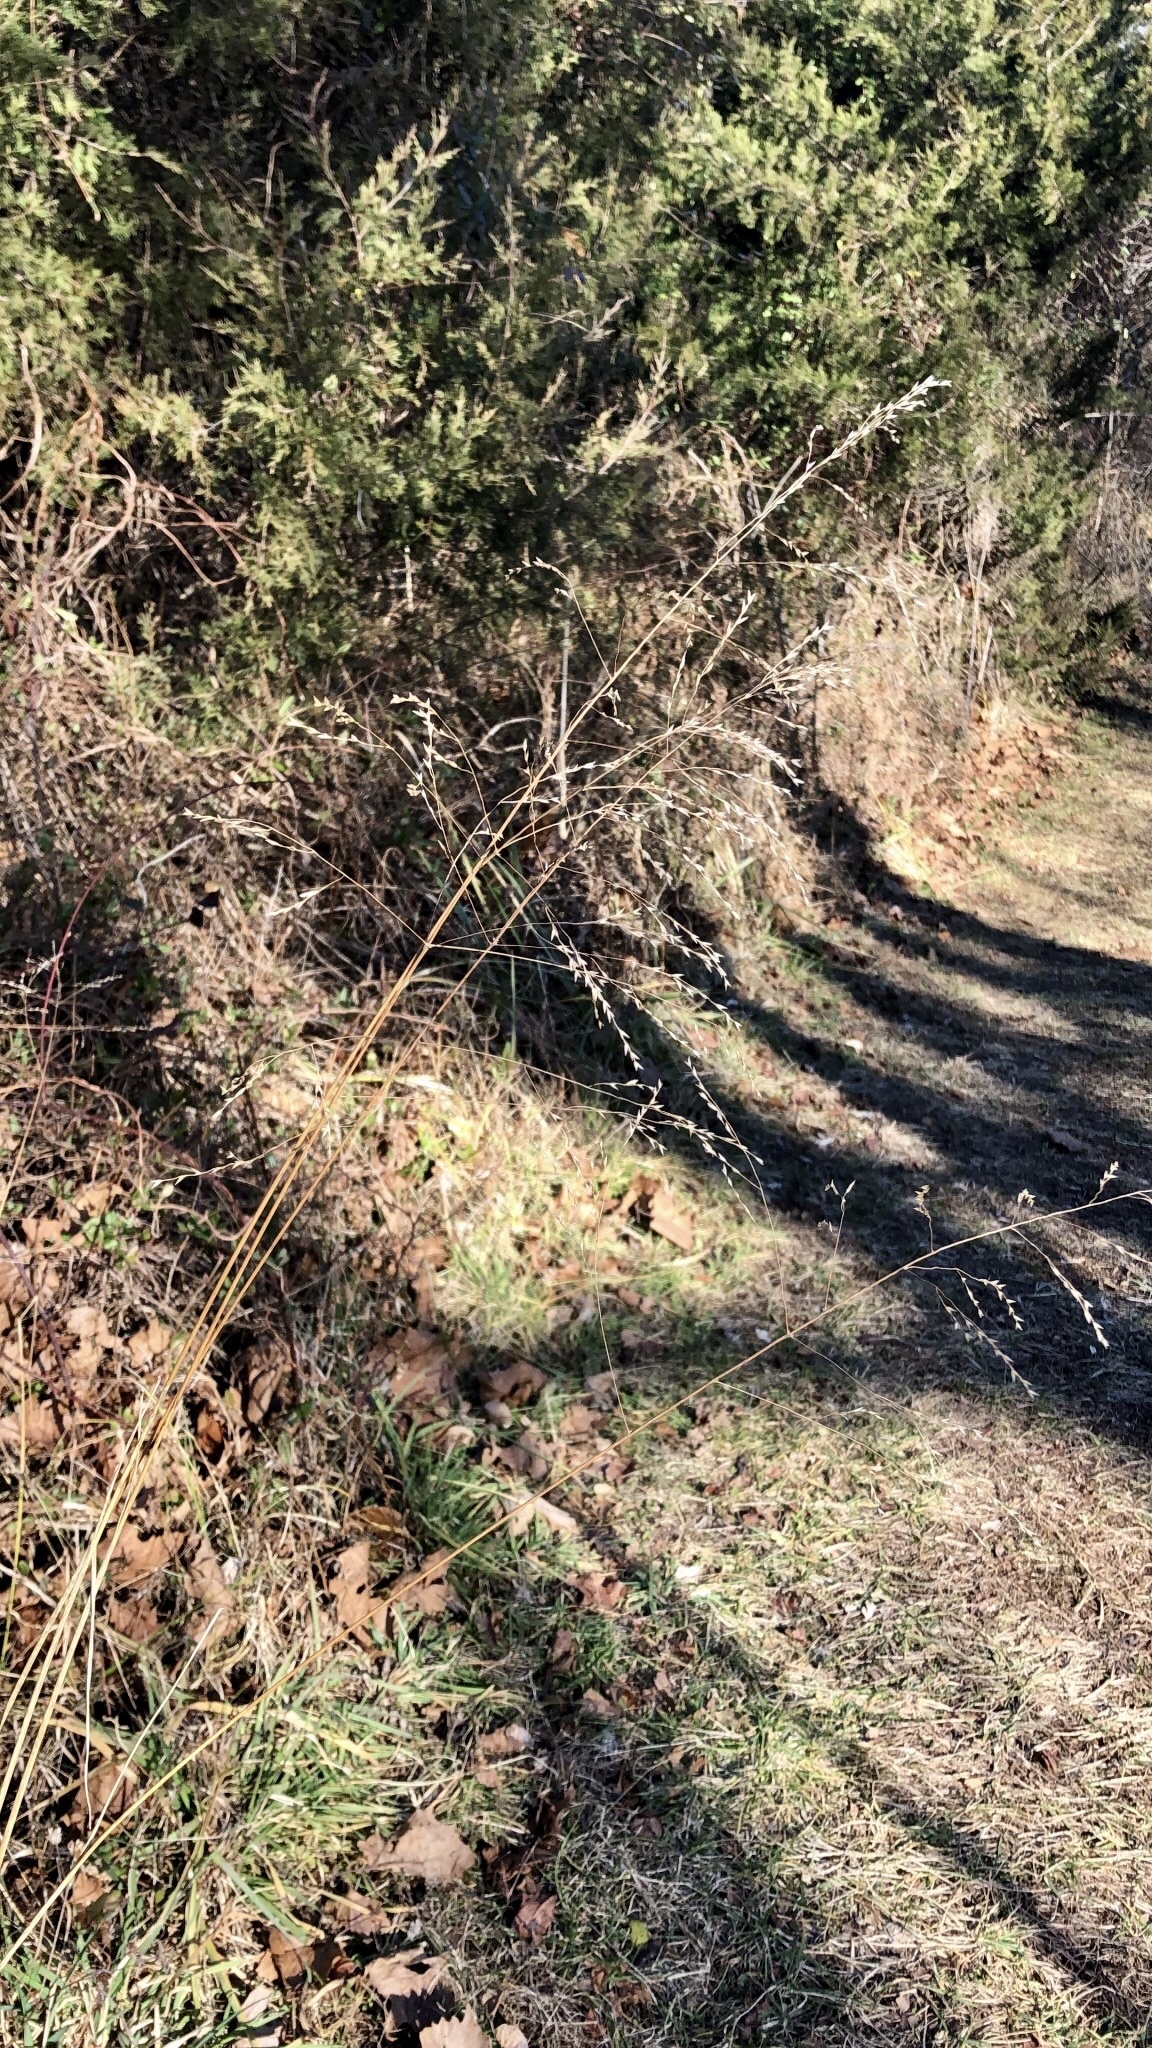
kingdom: Plantae
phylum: Tracheophyta
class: Liliopsida
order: Poales
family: Poaceae
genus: Tridens
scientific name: Tridens flavus
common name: Purpletop
